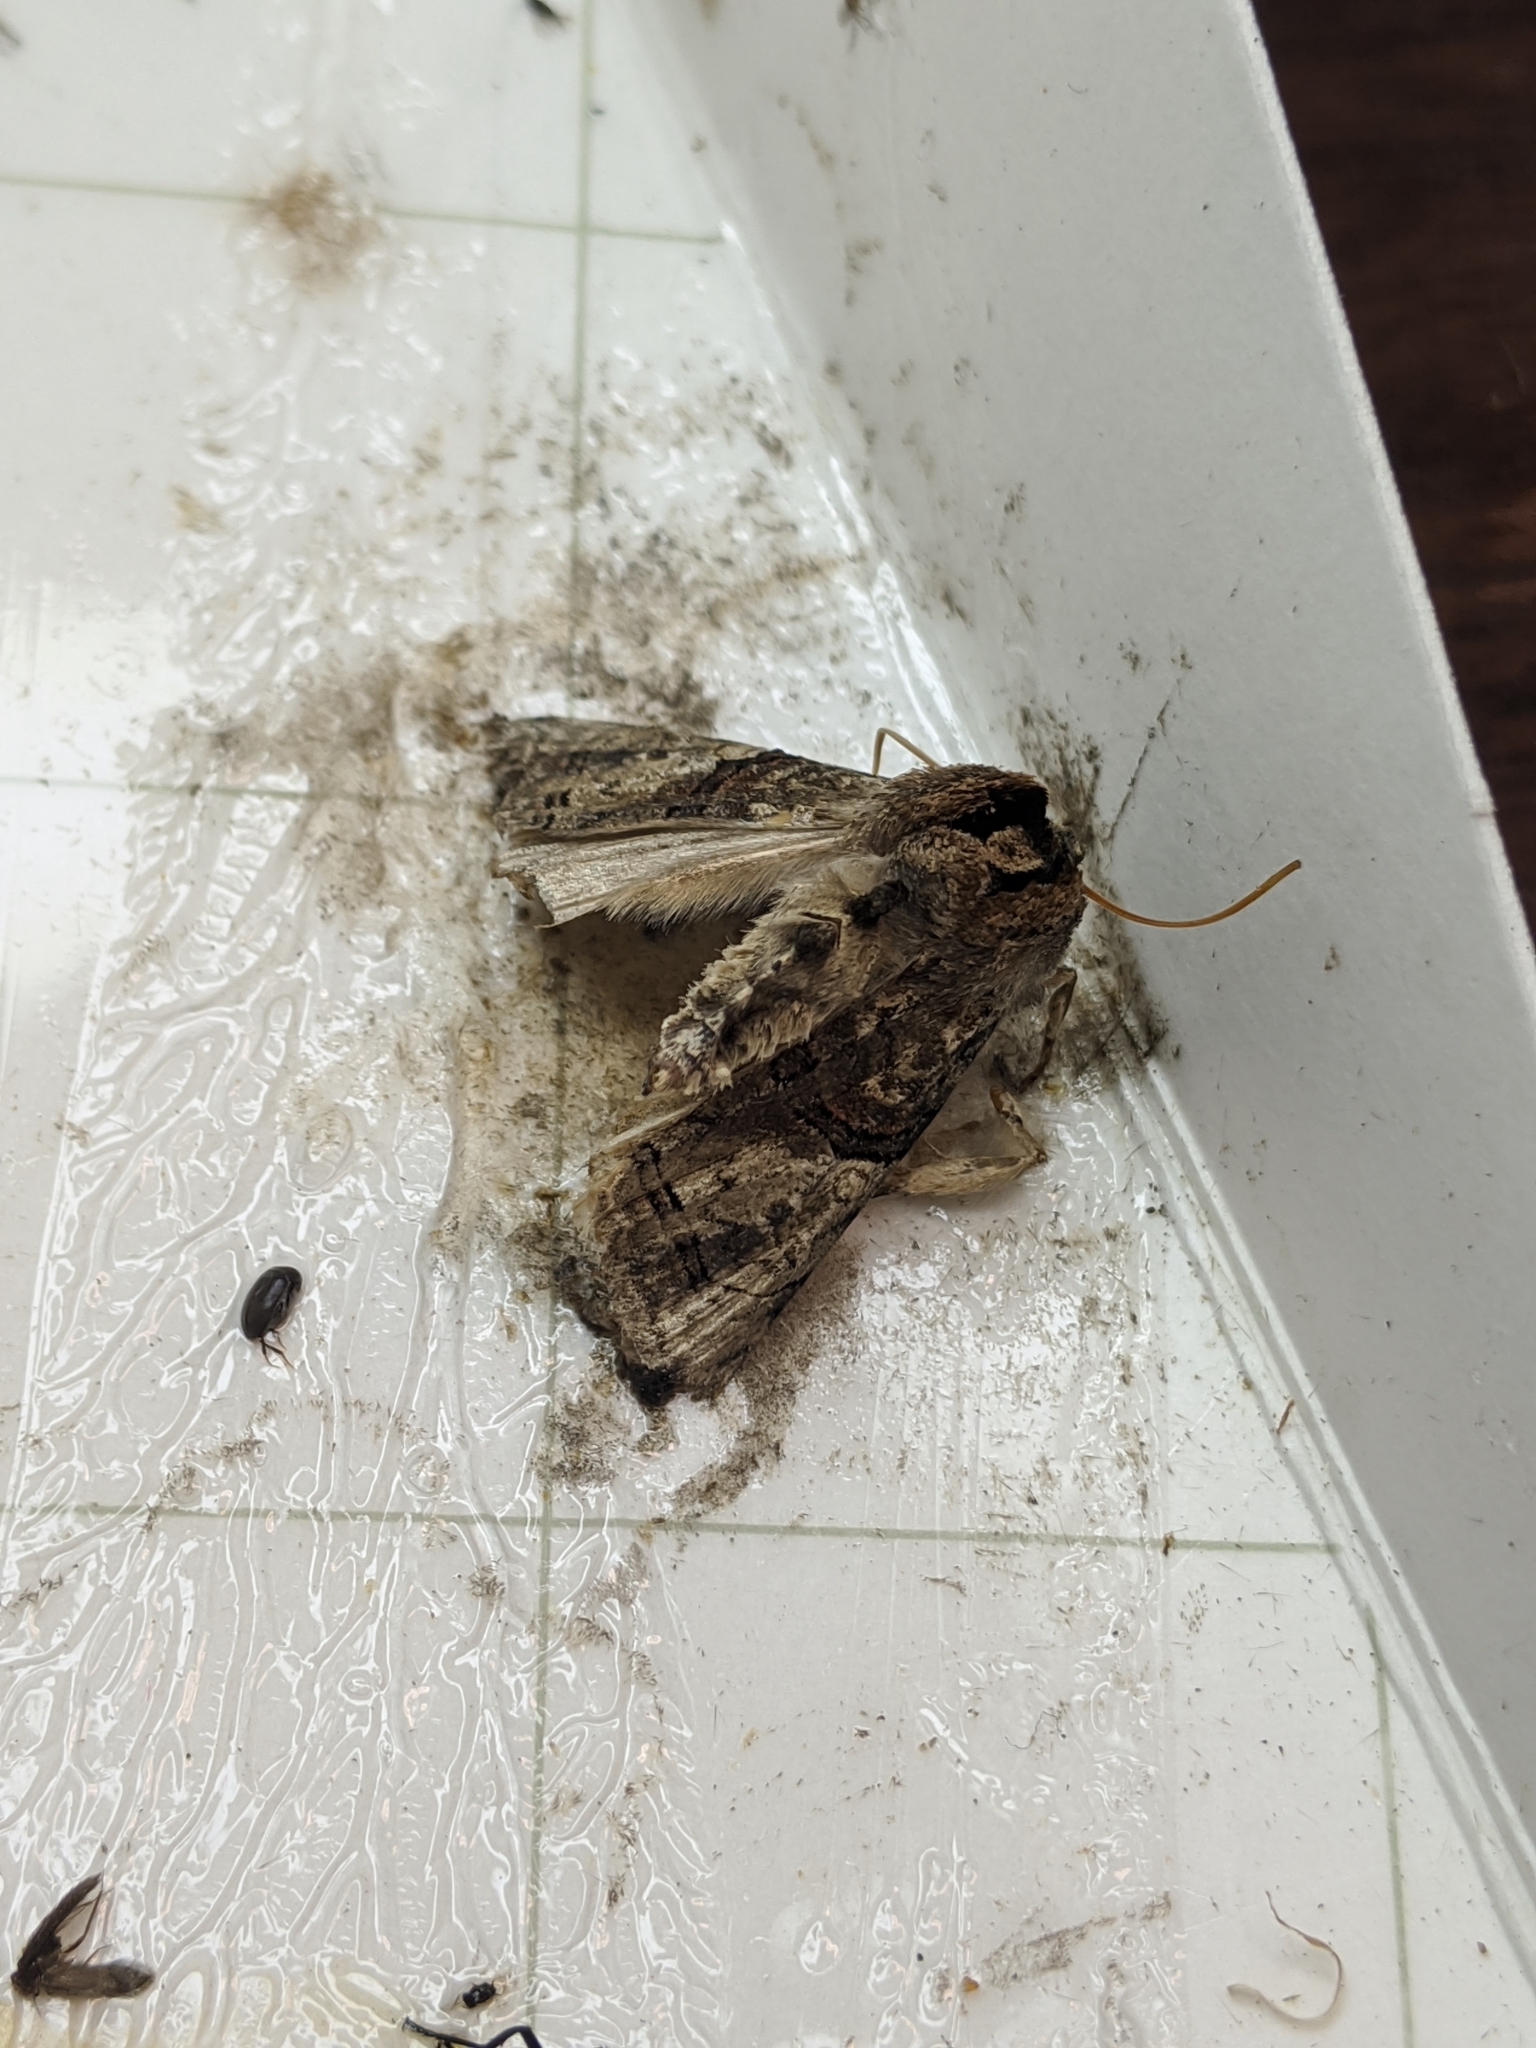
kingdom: Animalia
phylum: Arthropoda
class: Insecta
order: Lepidoptera
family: Drepanidae
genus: Neotogaria
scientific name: Neotogaria saitonis
